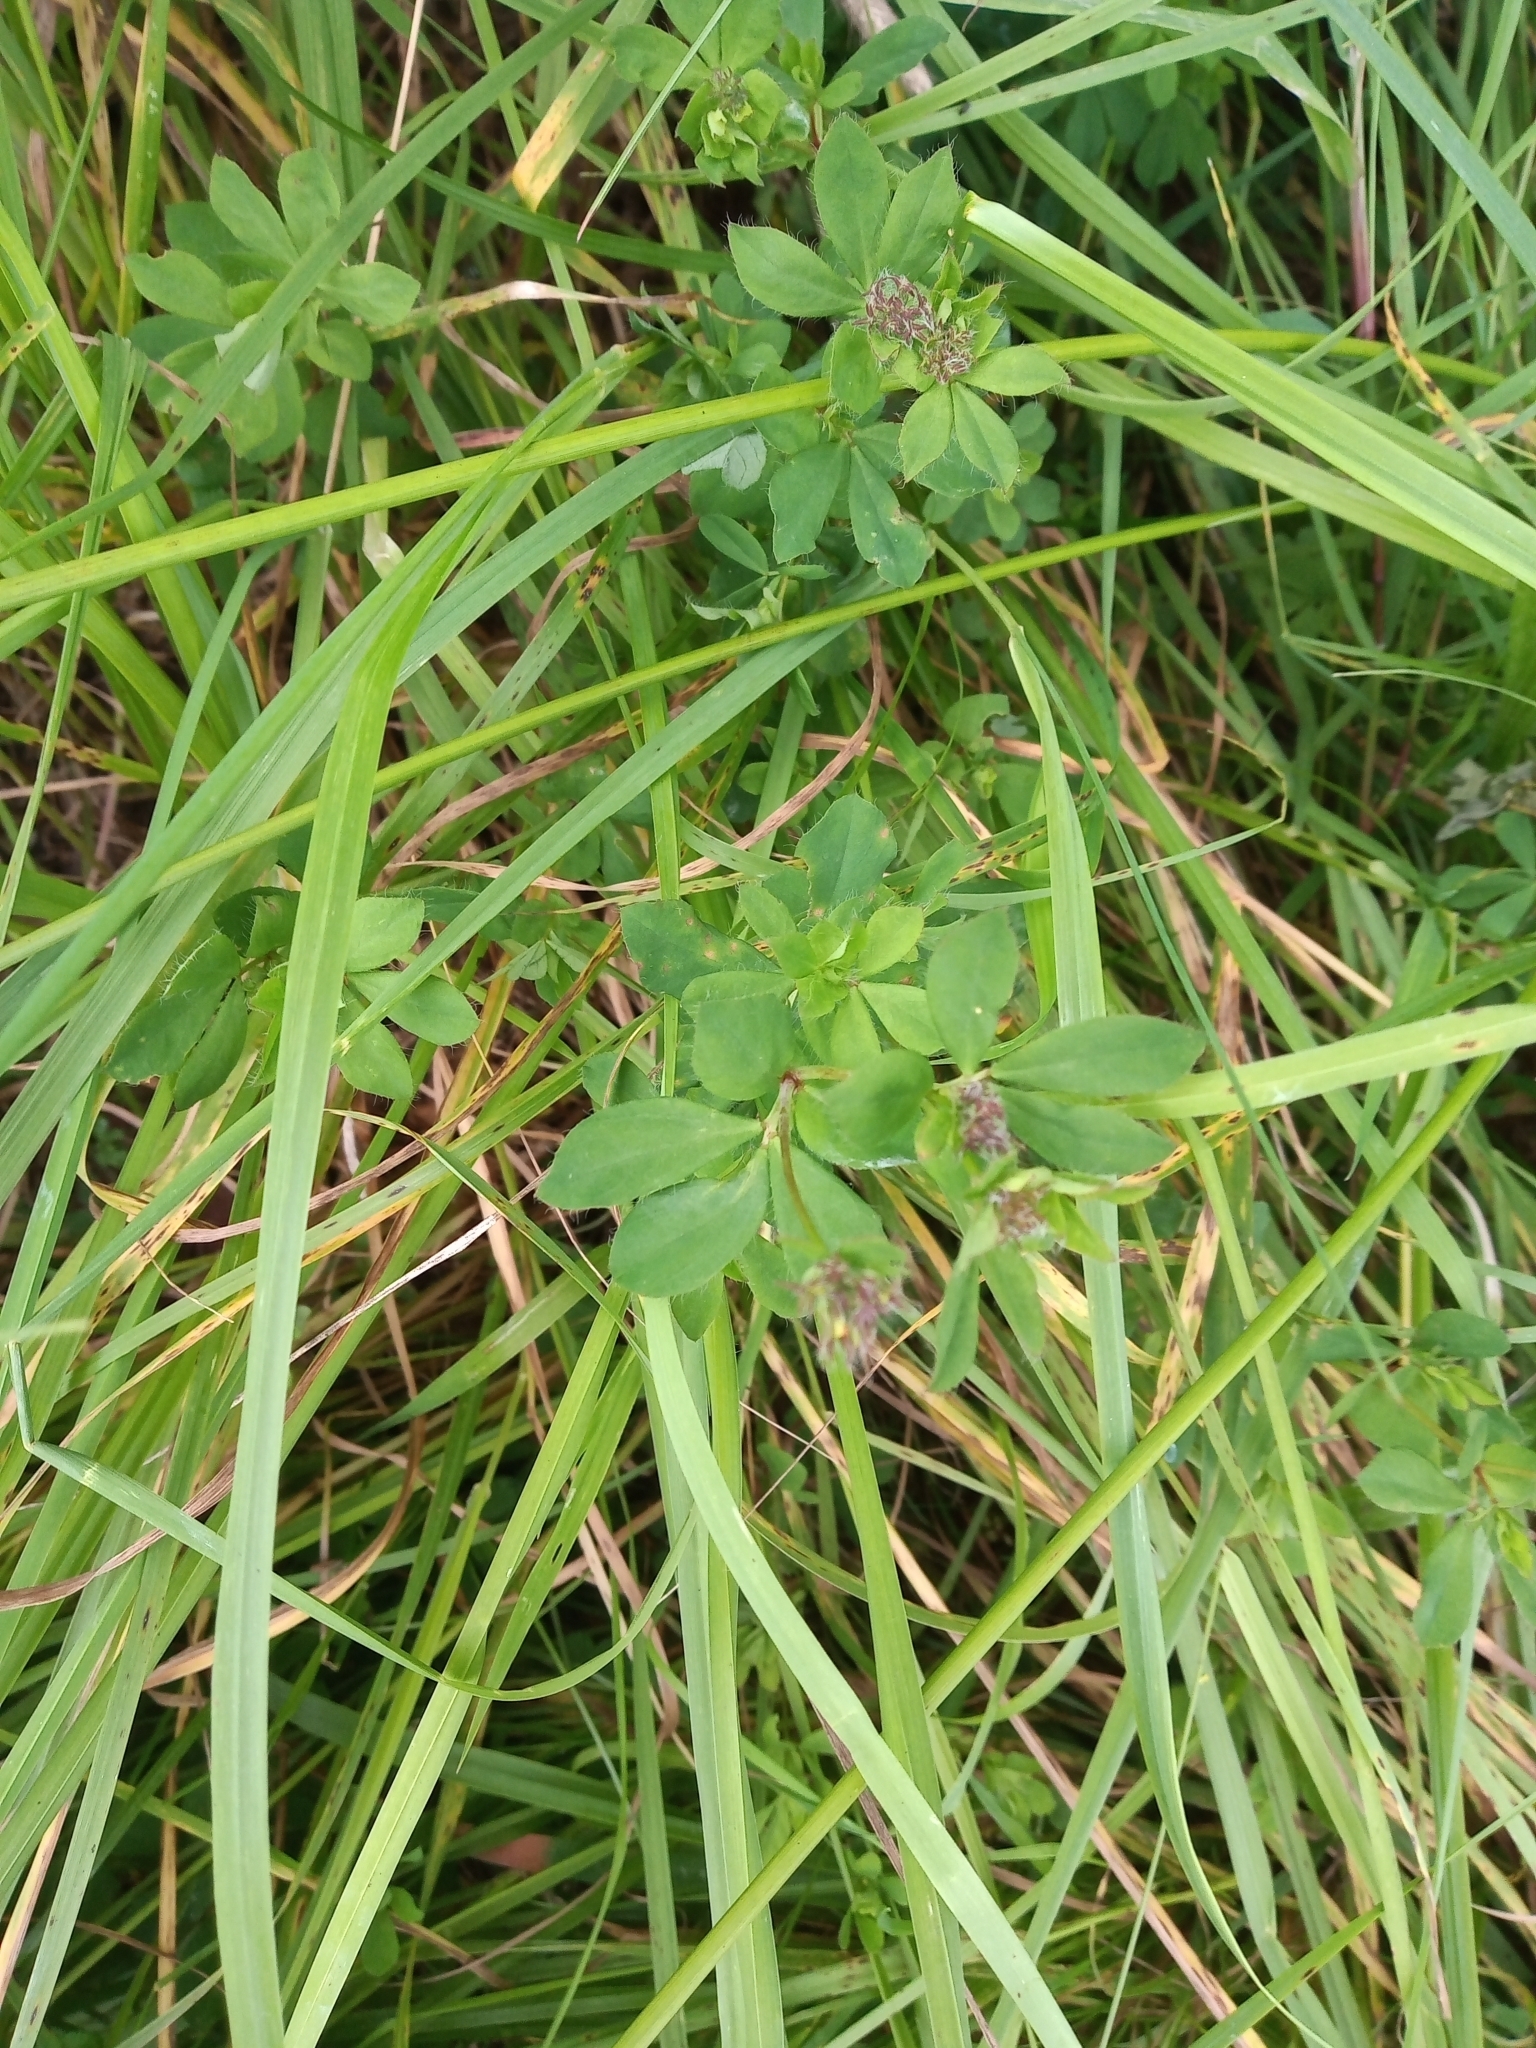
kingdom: Plantae
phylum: Tracheophyta
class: Magnoliopsida
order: Fabales
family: Fabaceae
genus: Lotus
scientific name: Lotus pedunculatus
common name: Greater birdsfoot-trefoil
